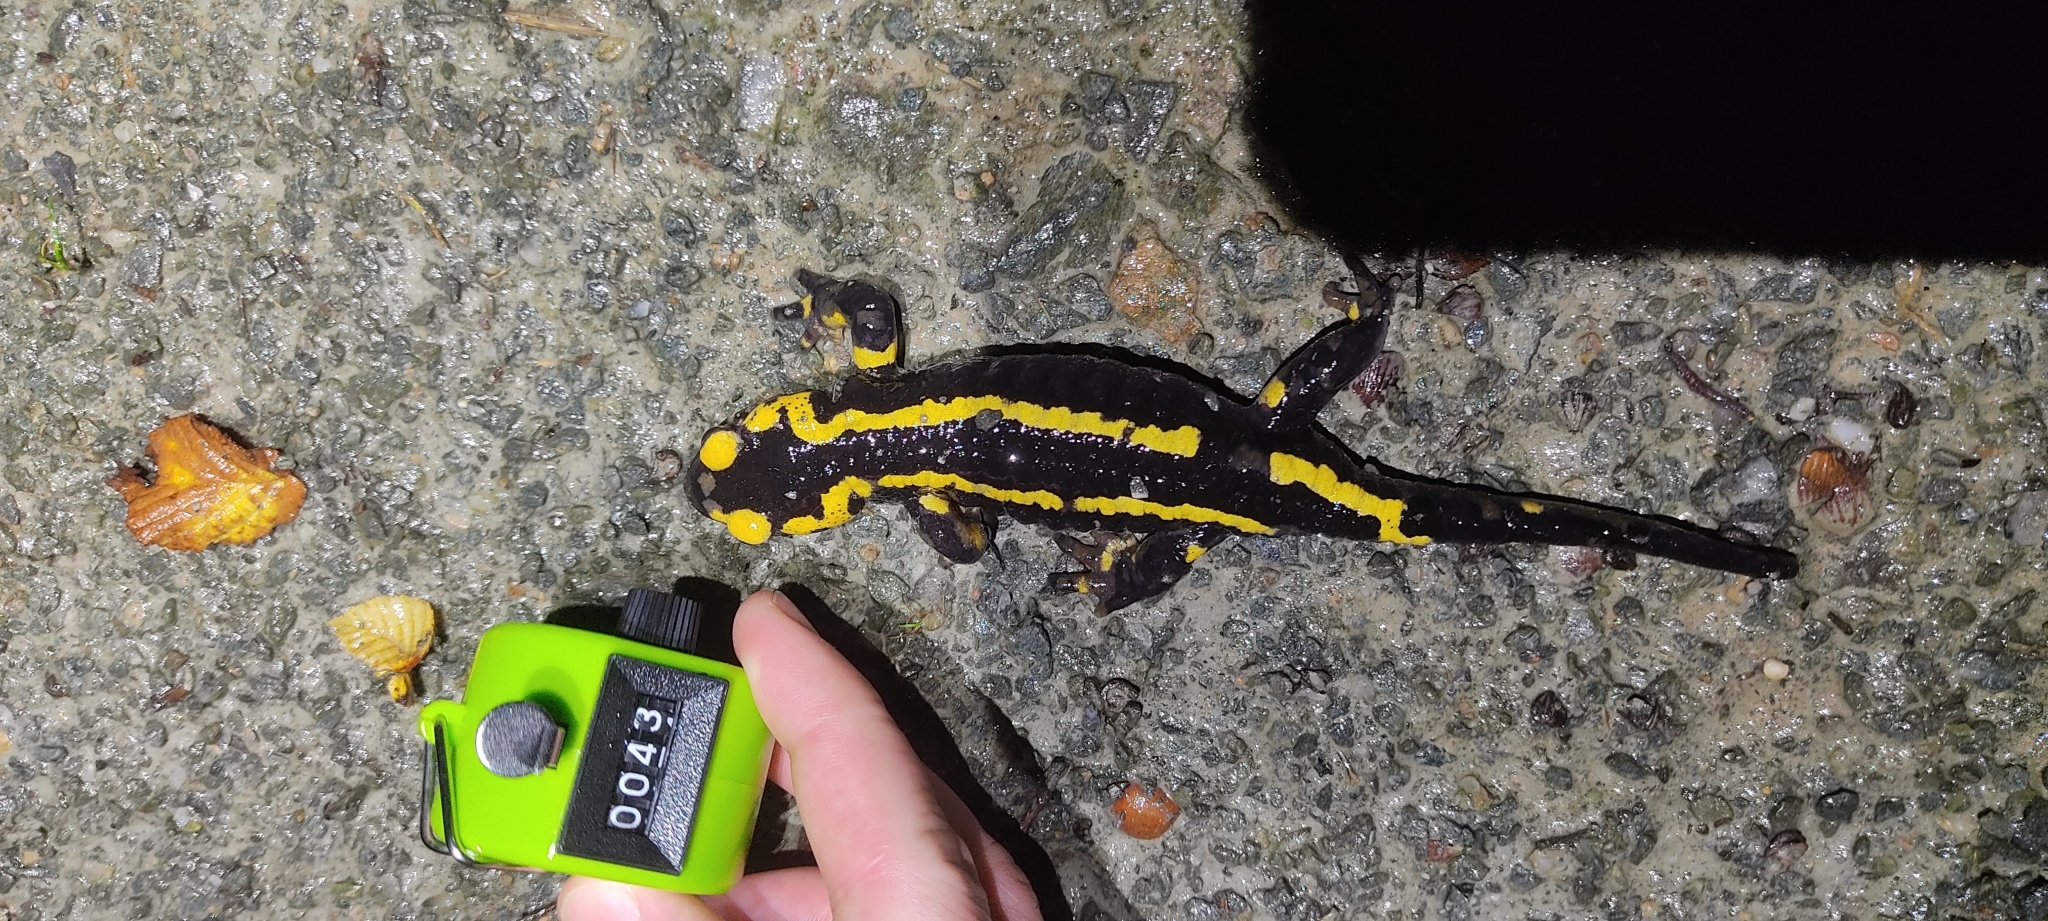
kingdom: Animalia
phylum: Chordata
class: Amphibia
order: Caudata
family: Salamandridae
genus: Salamandra
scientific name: Salamandra salamandra
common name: Fire salamander
